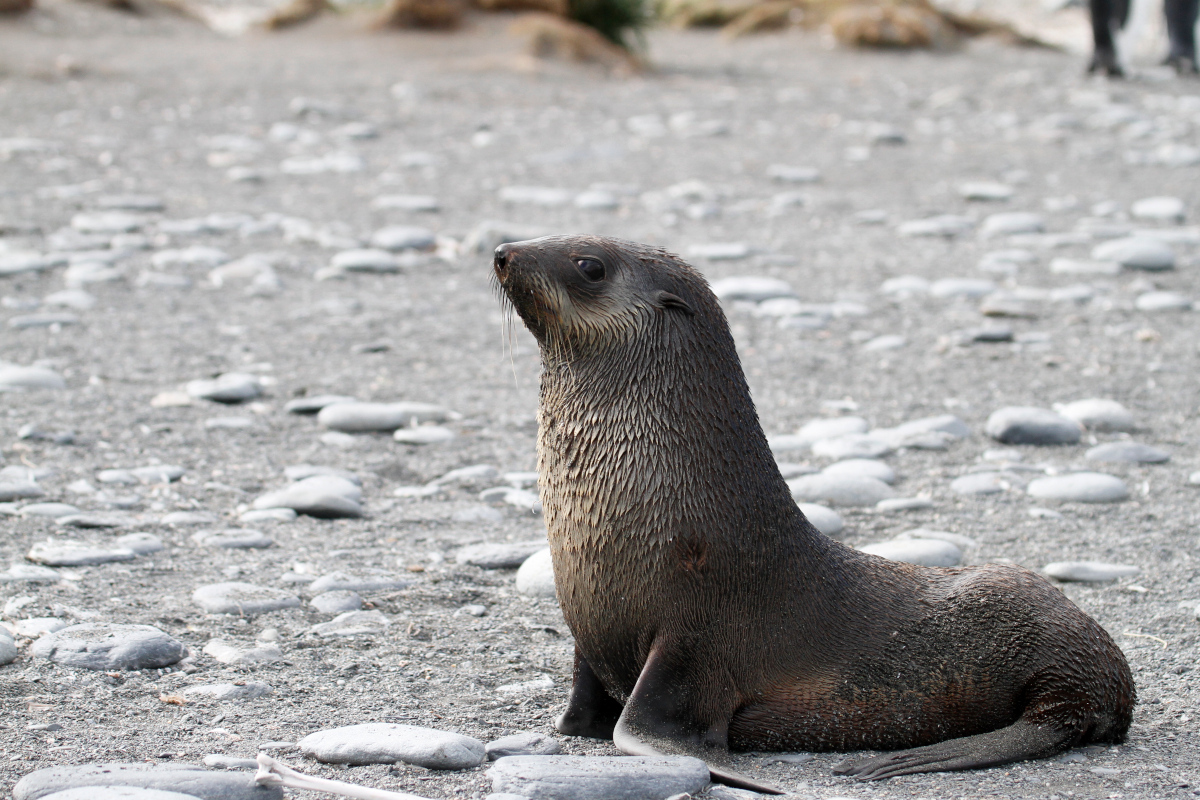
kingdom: Animalia
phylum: Chordata
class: Mammalia
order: Carnivora
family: Otariidae
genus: Arctocephalus
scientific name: Arctocephalus gazella
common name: Antarctic fur seal
